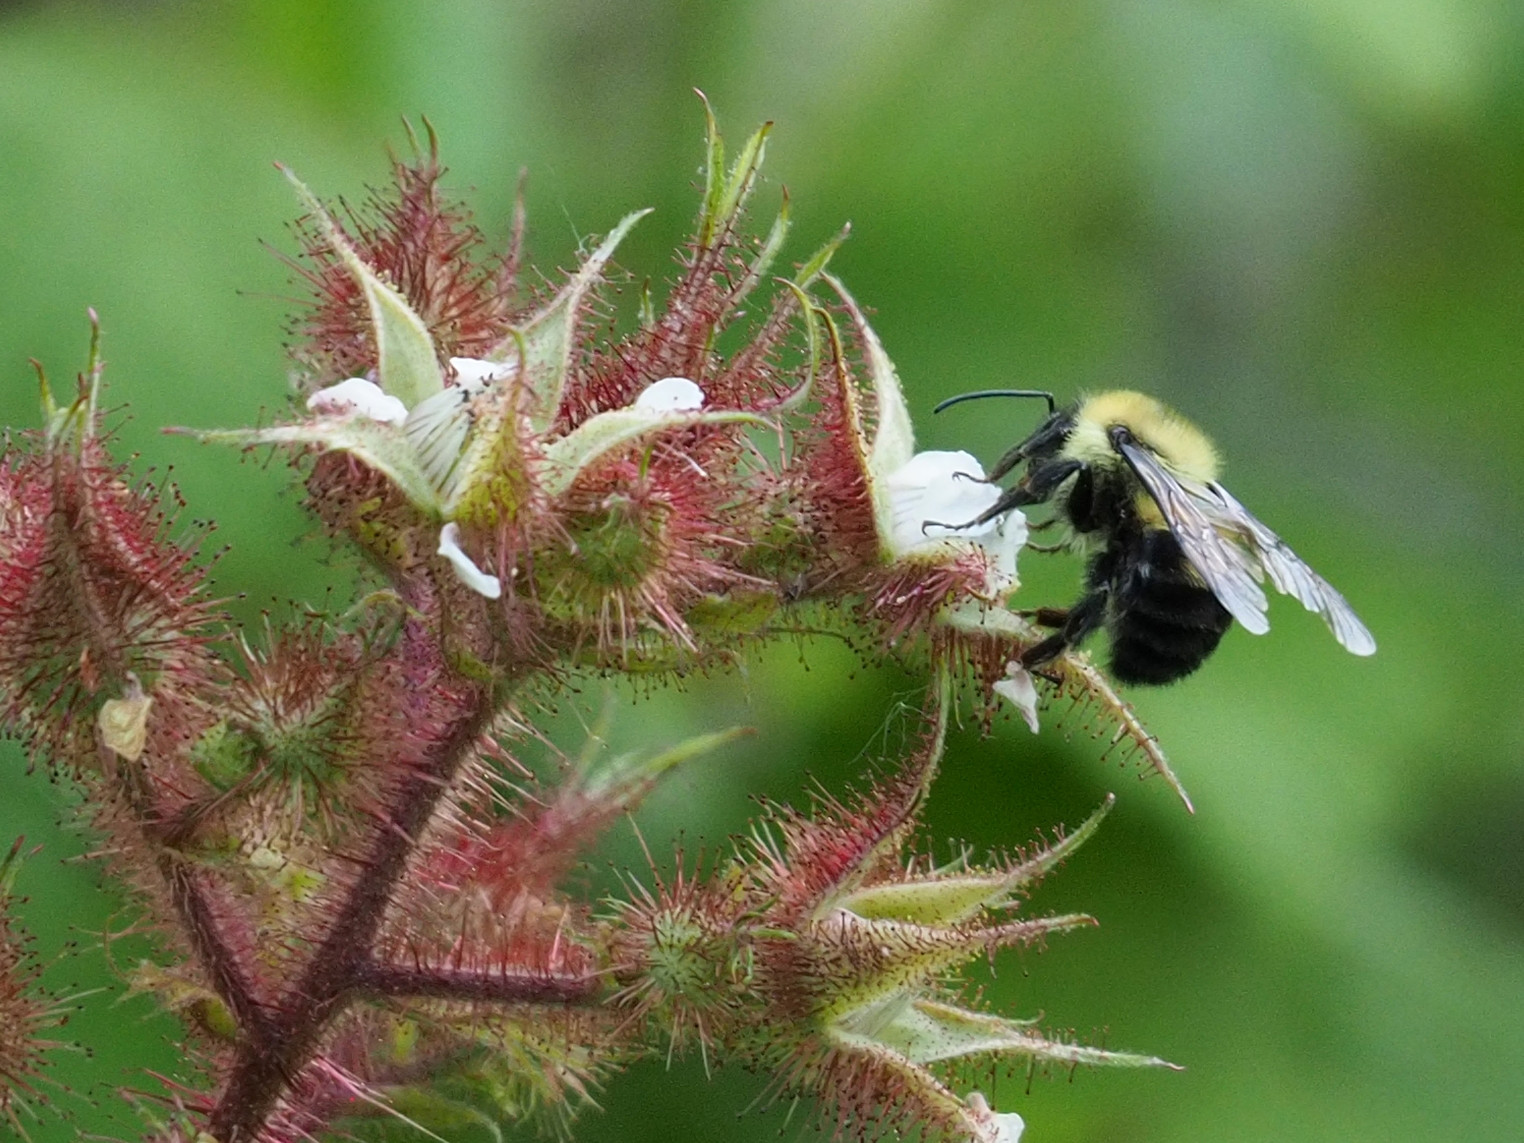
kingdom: Animalia
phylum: Arthropoda
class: Insecta
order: Hymenoptera
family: Apidae
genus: Bombus
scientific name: Bombus bimaculatus
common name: Two-spotted bumble bee
